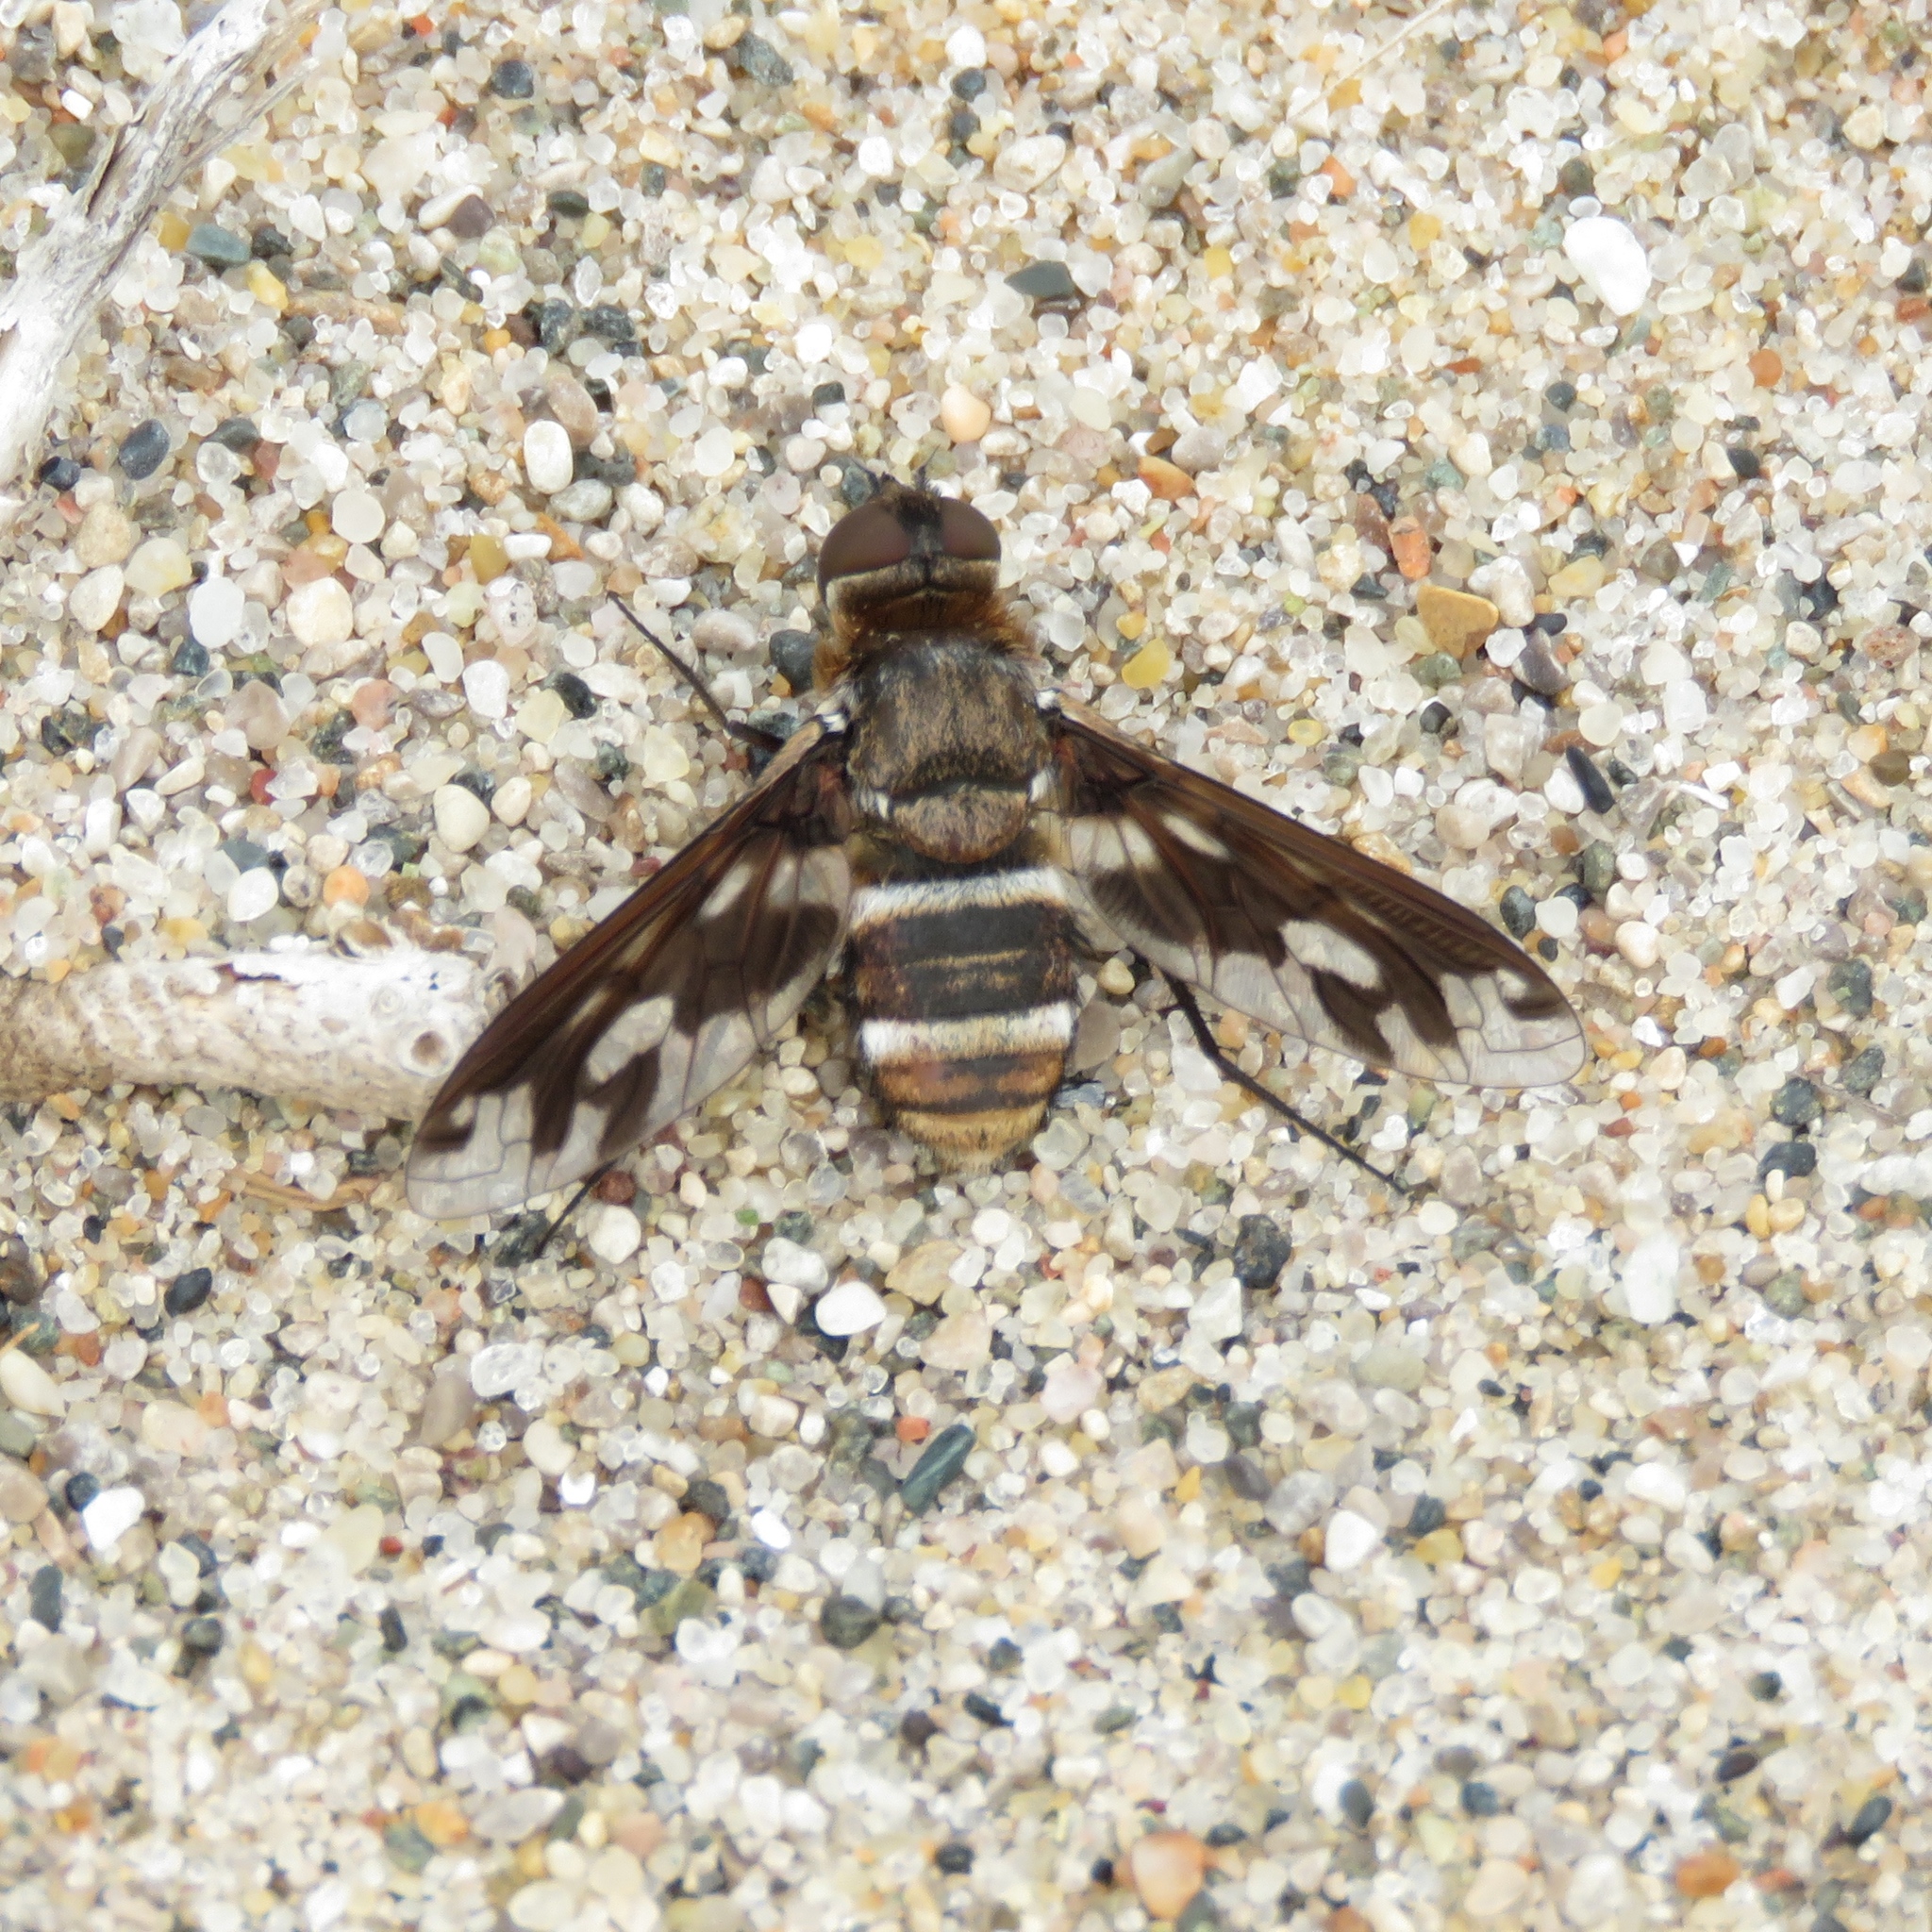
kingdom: Animalia
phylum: Arthropoda
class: Insecta
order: Diptera
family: Bombyliidae
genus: Exoprosopa
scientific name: Exoprosopa fascipennis
